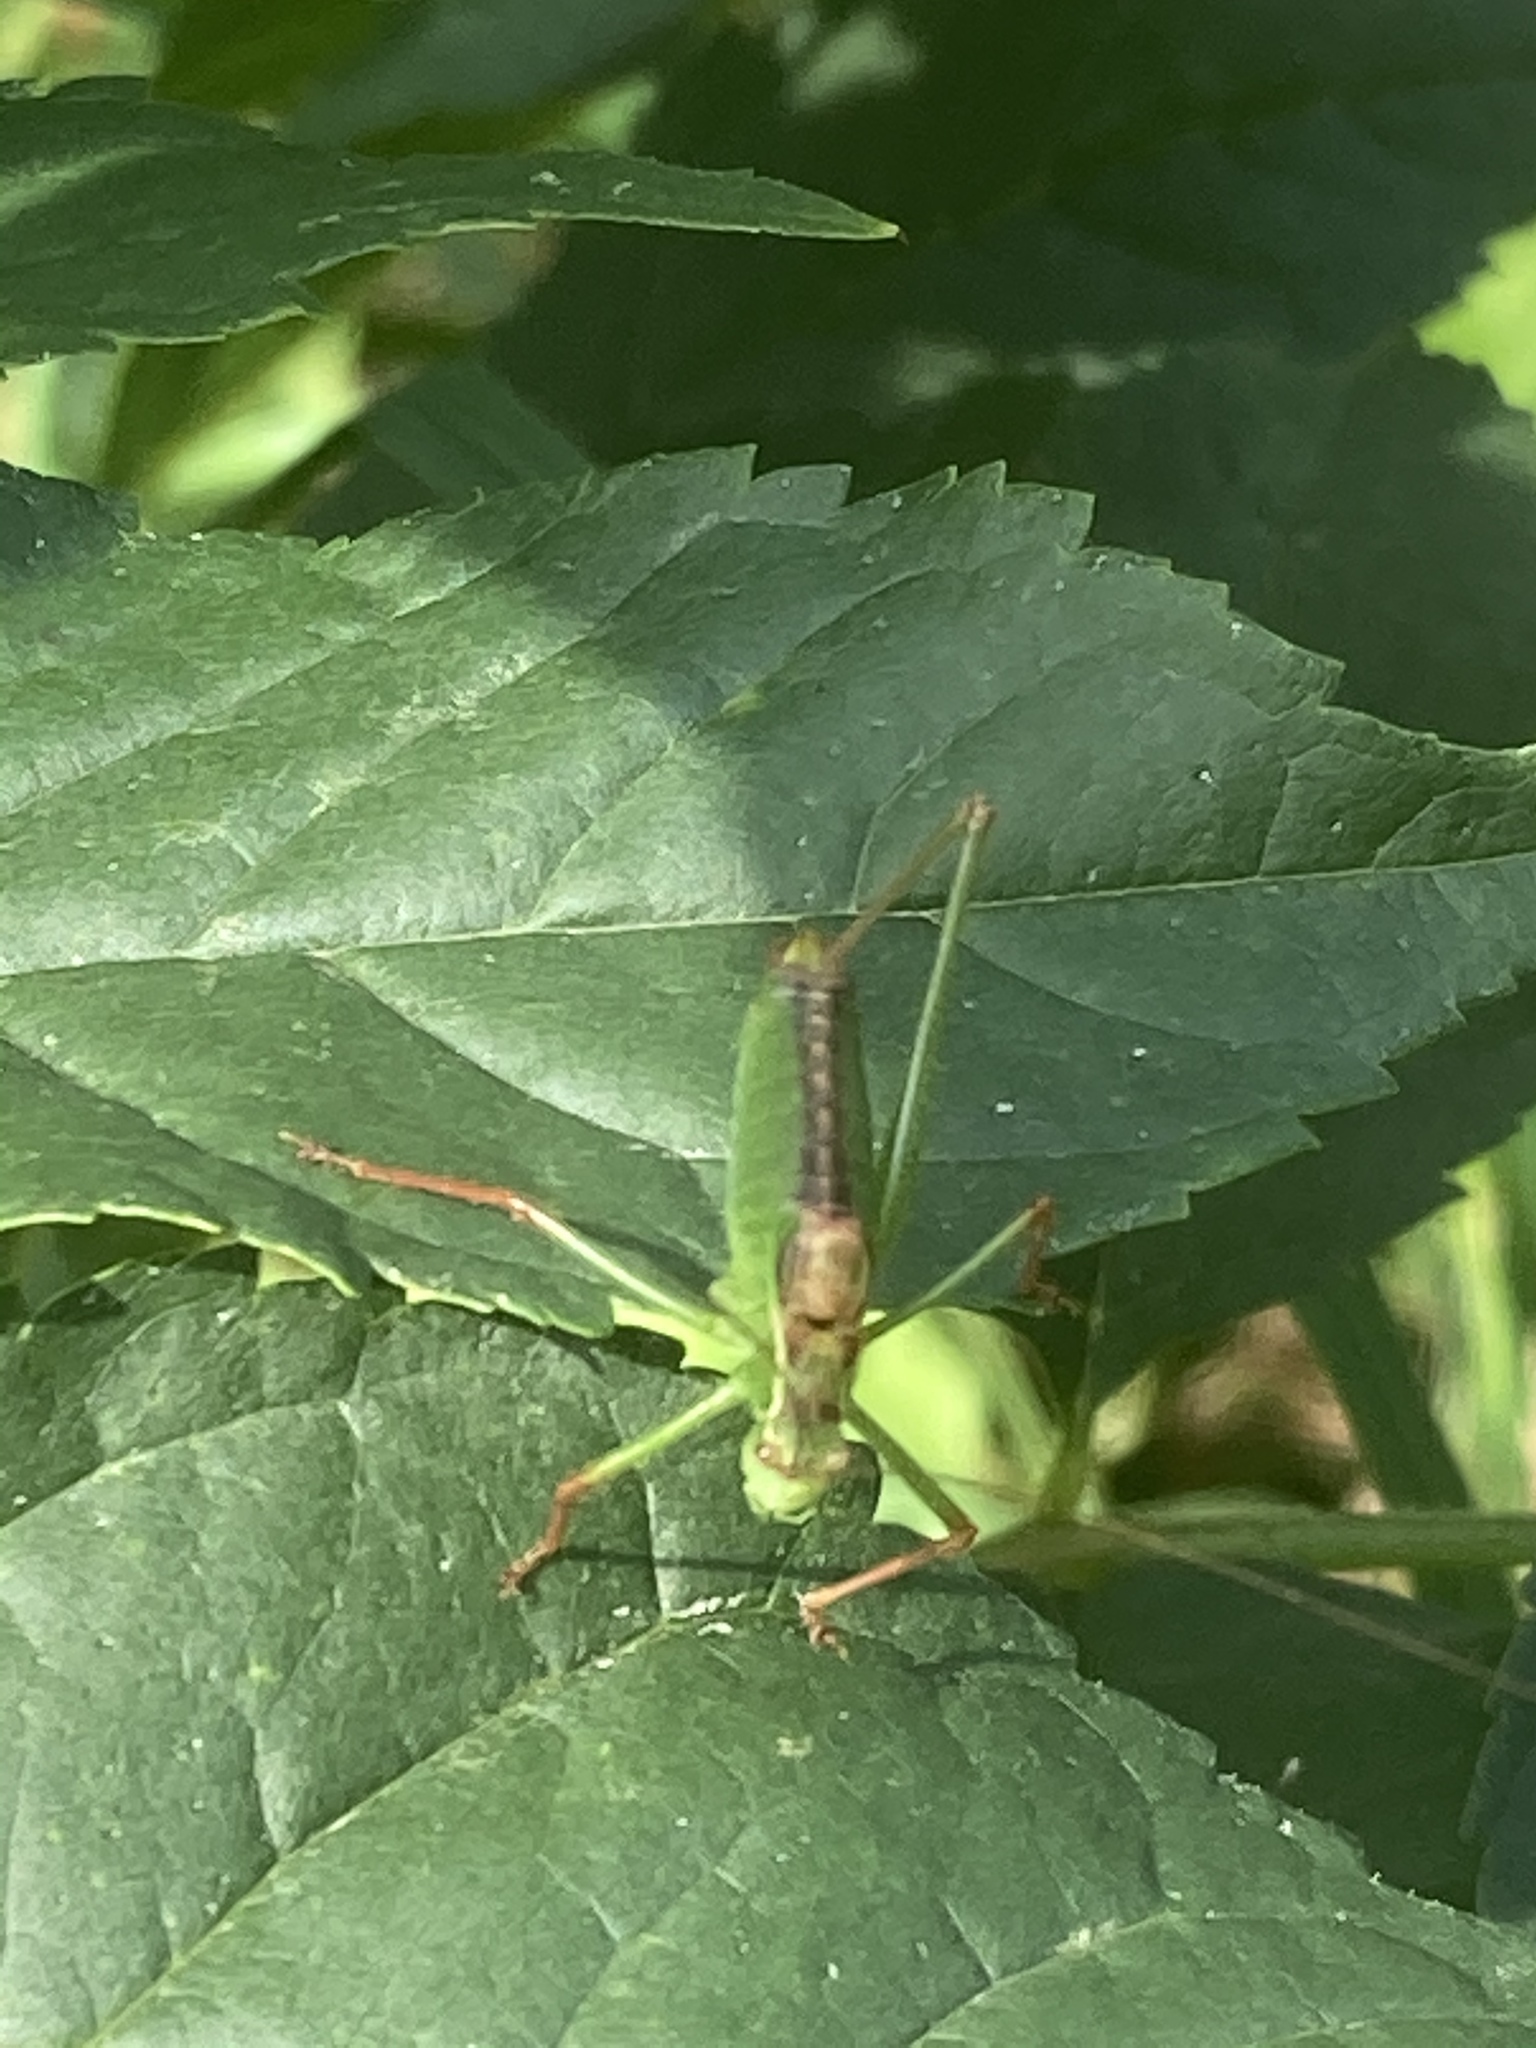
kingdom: Animalia
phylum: Arthropoda
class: Insecta
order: Orthoptera
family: Tettigoniidae
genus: Leptophyes
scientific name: Leptophyes punctatissima
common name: Speckled bush-cricket
